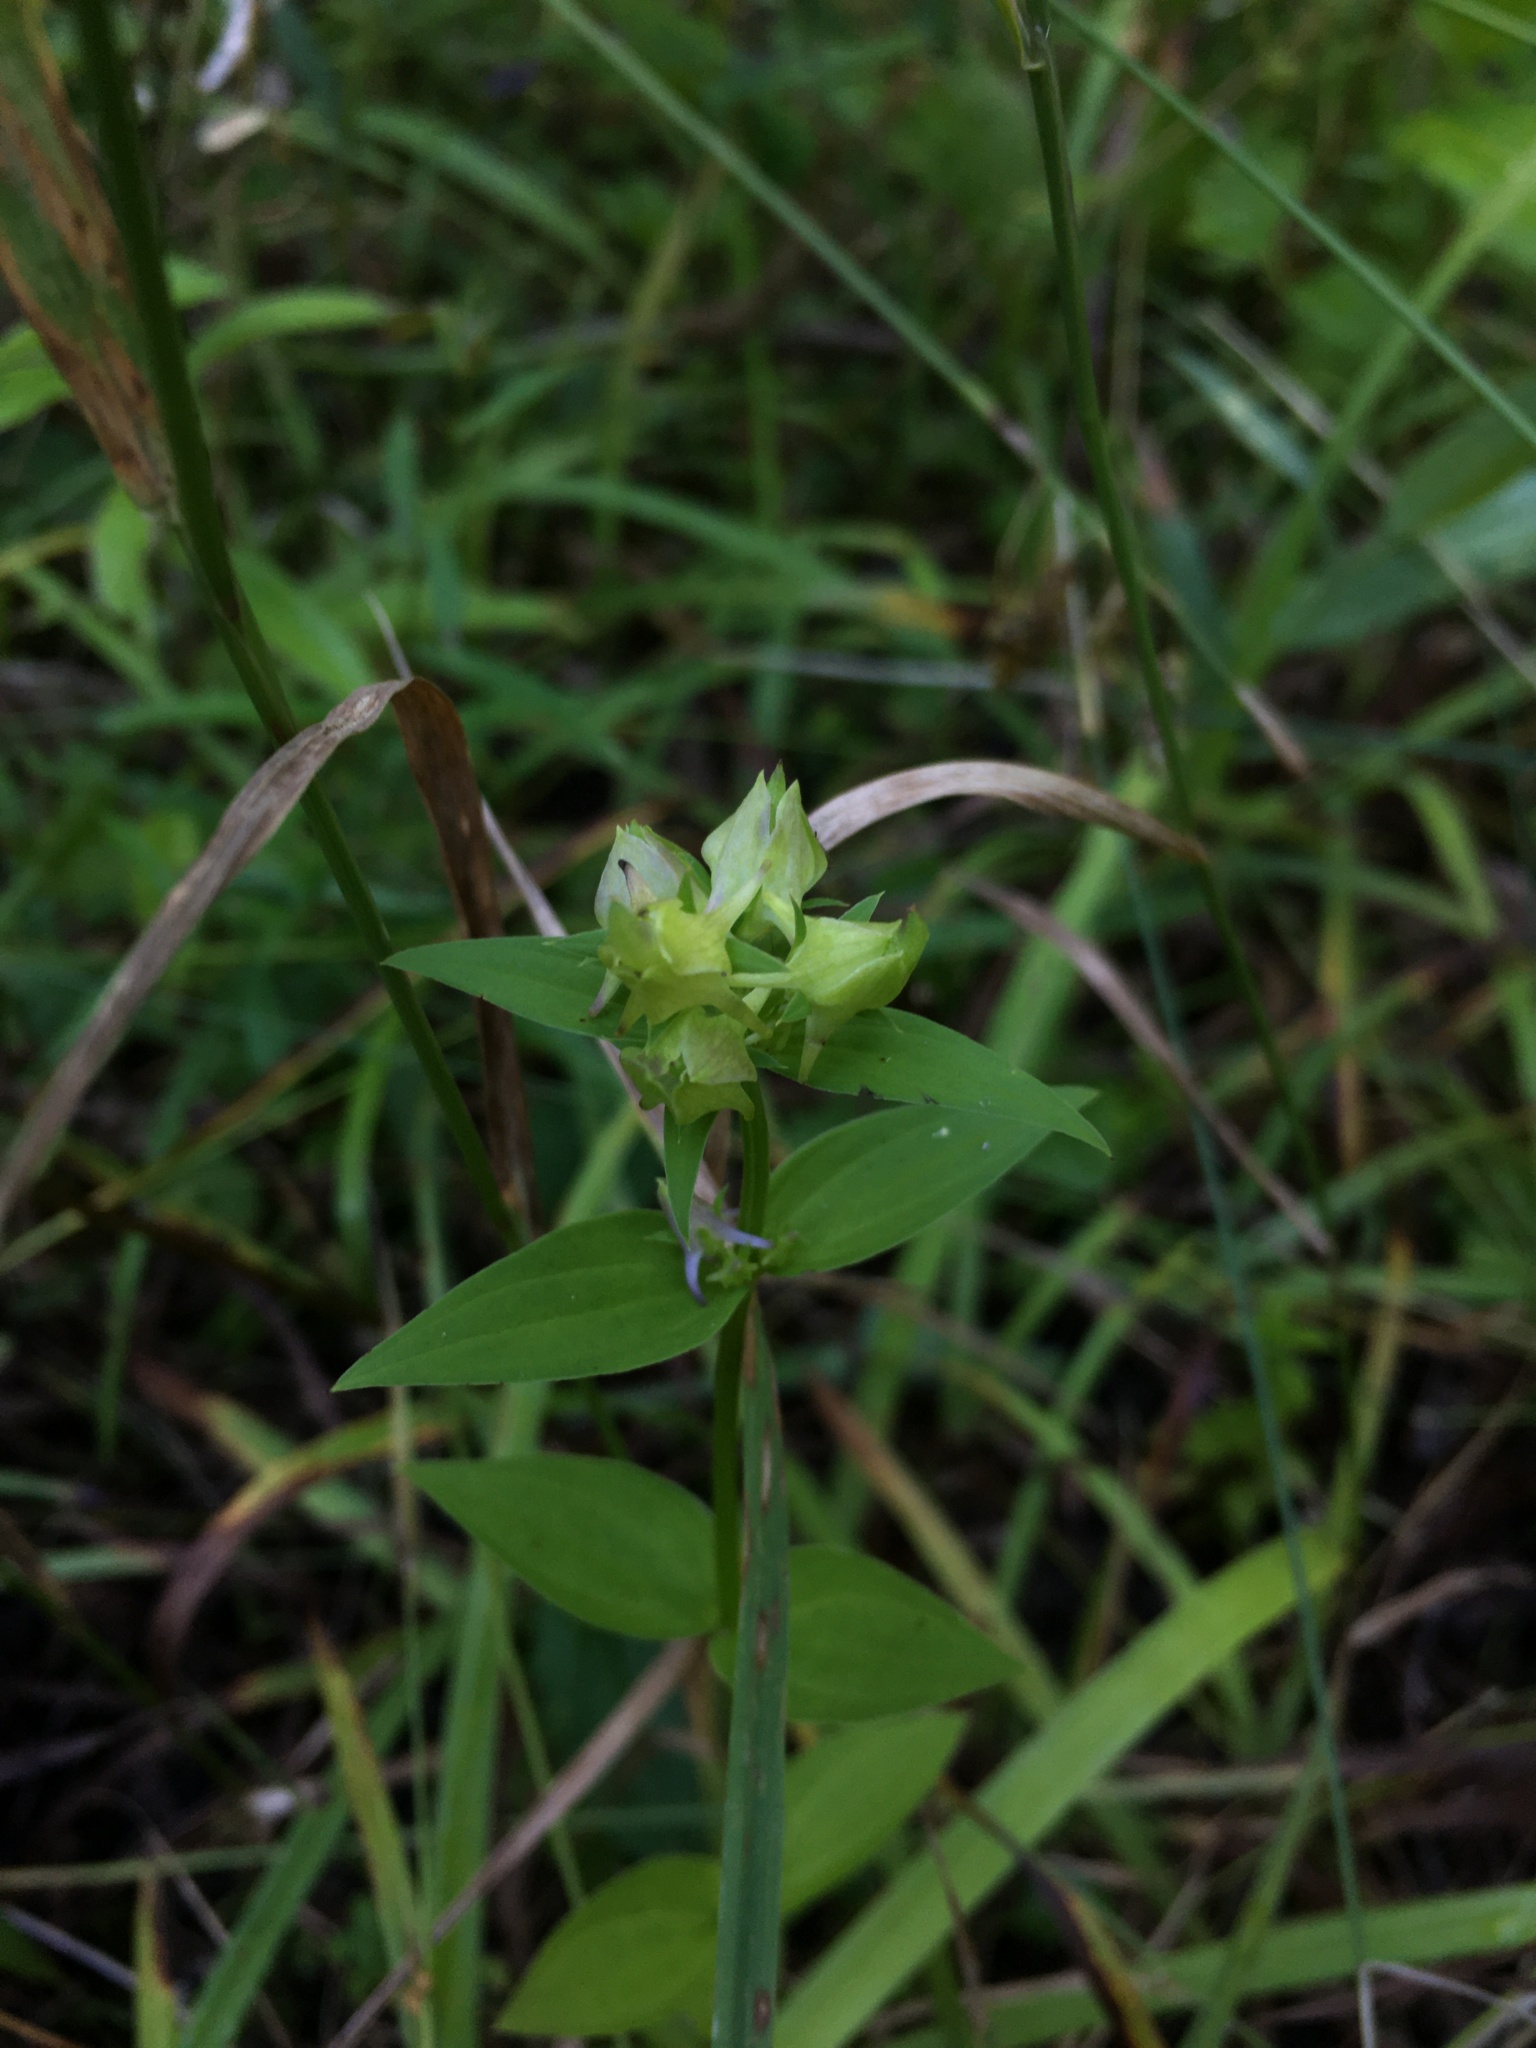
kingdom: Plantae
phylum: Tracheophyta
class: Magnoliopsida
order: Gentianales
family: Gentianaceae
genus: Halenia
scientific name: Halenia deflexa
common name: American spurred gentian
